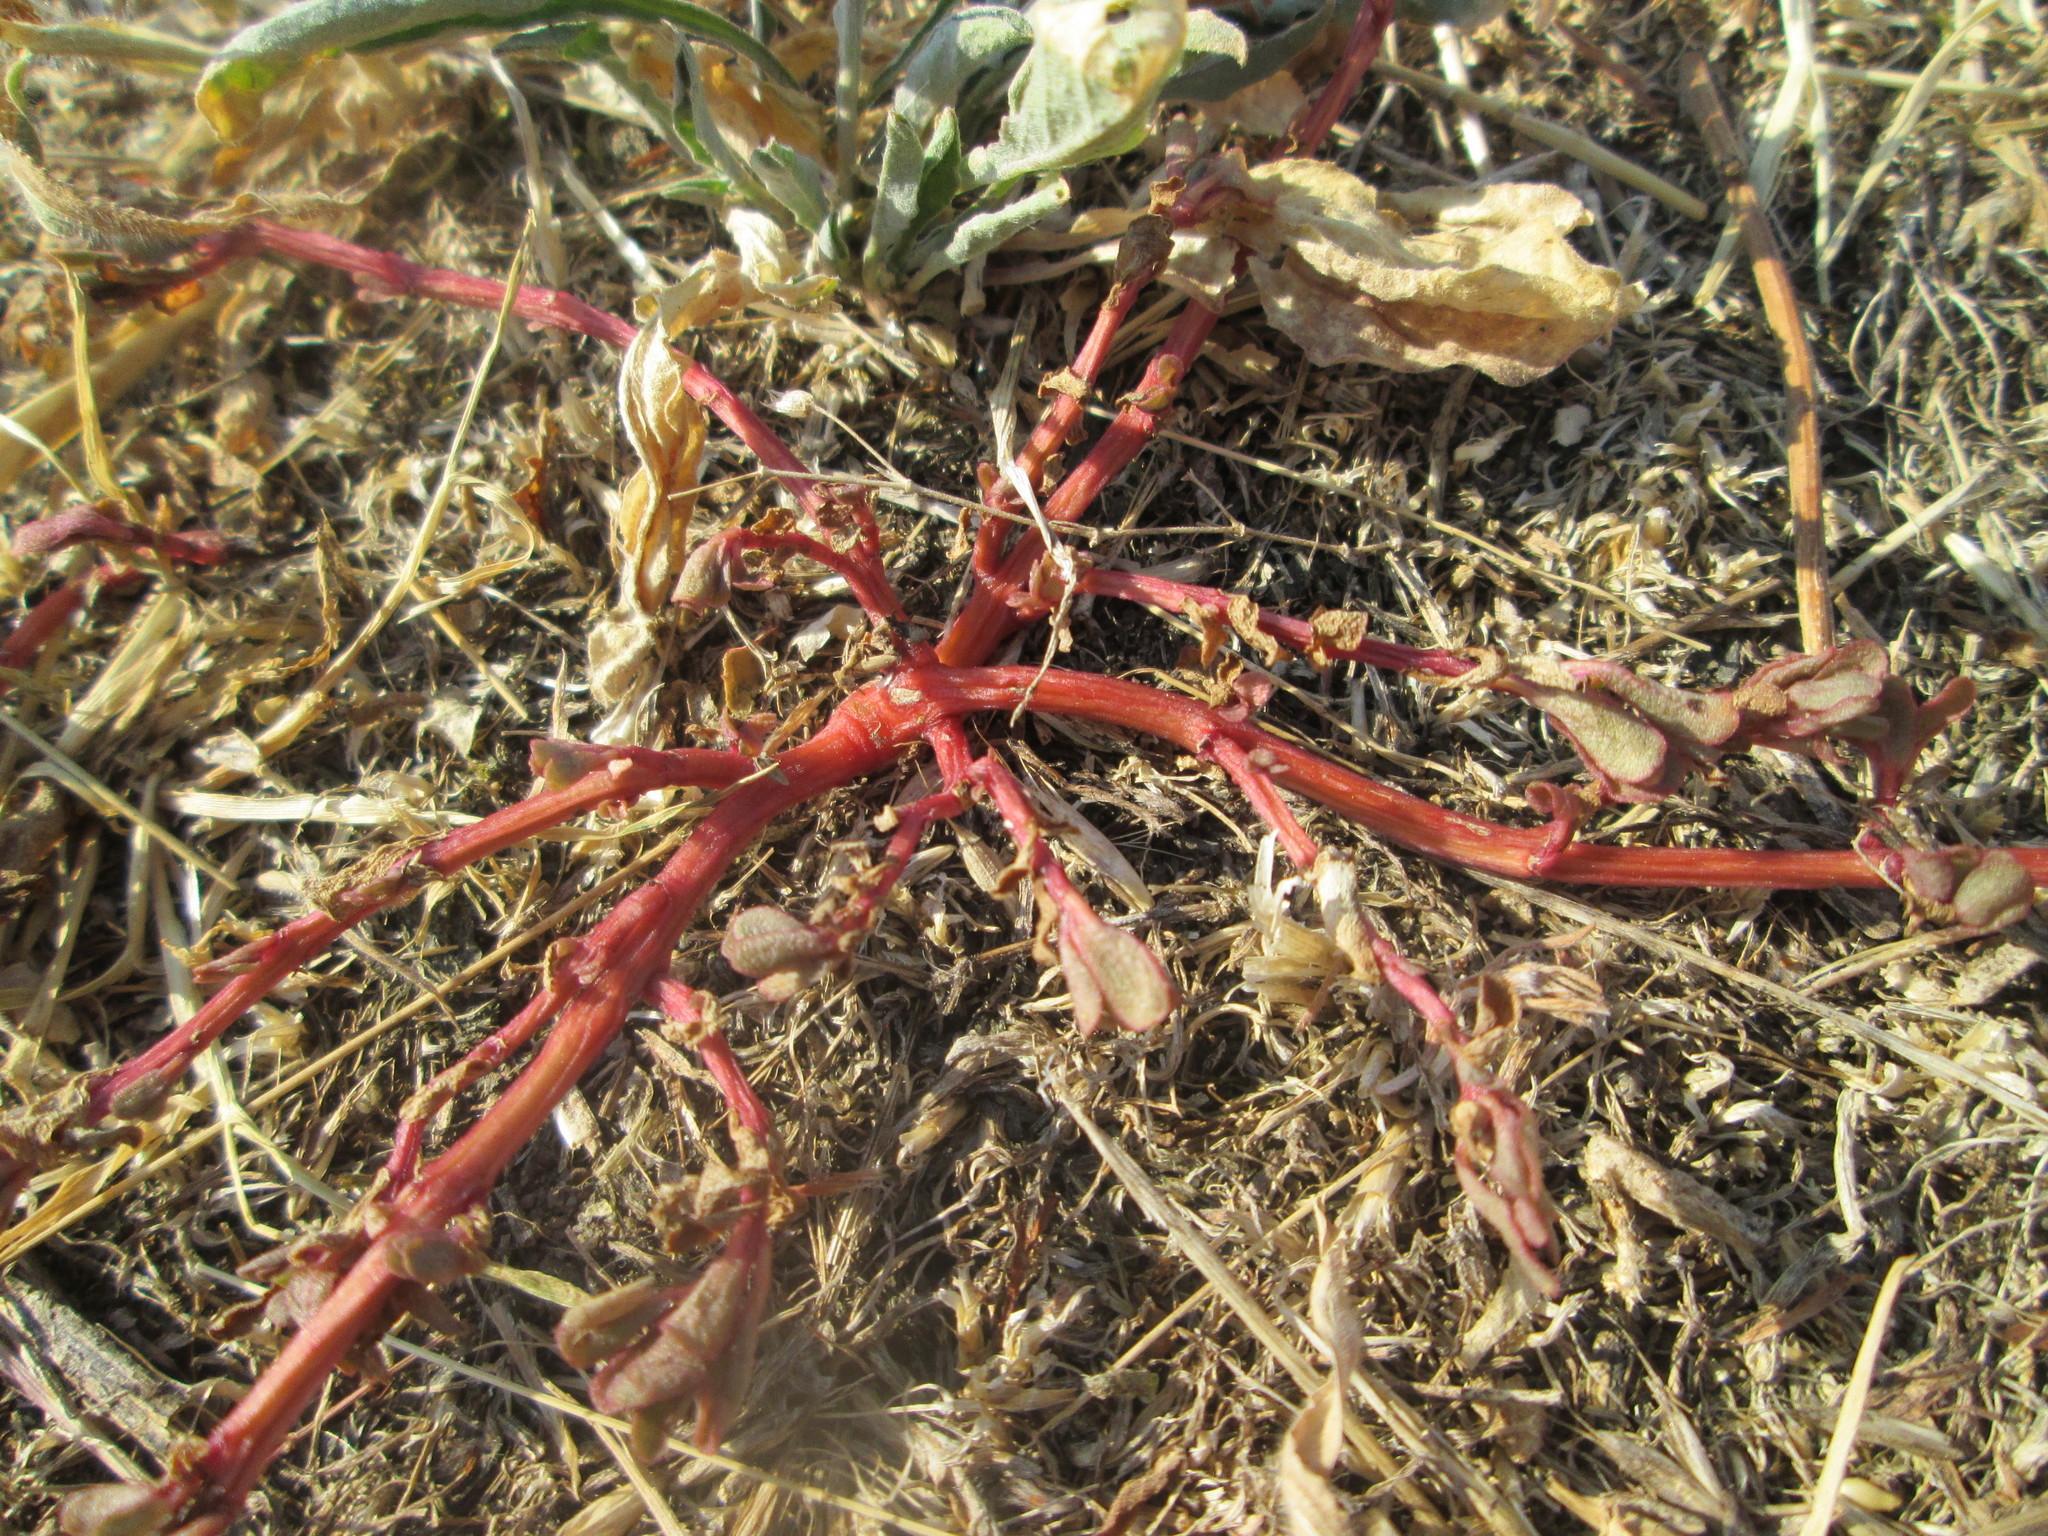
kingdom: Plantae
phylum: Tracheophyta
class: Magnoliopsida
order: Caryophyllales
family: Portulacaceae
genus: Portulaca
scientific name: Portulaca oleracea
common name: Common purslane
